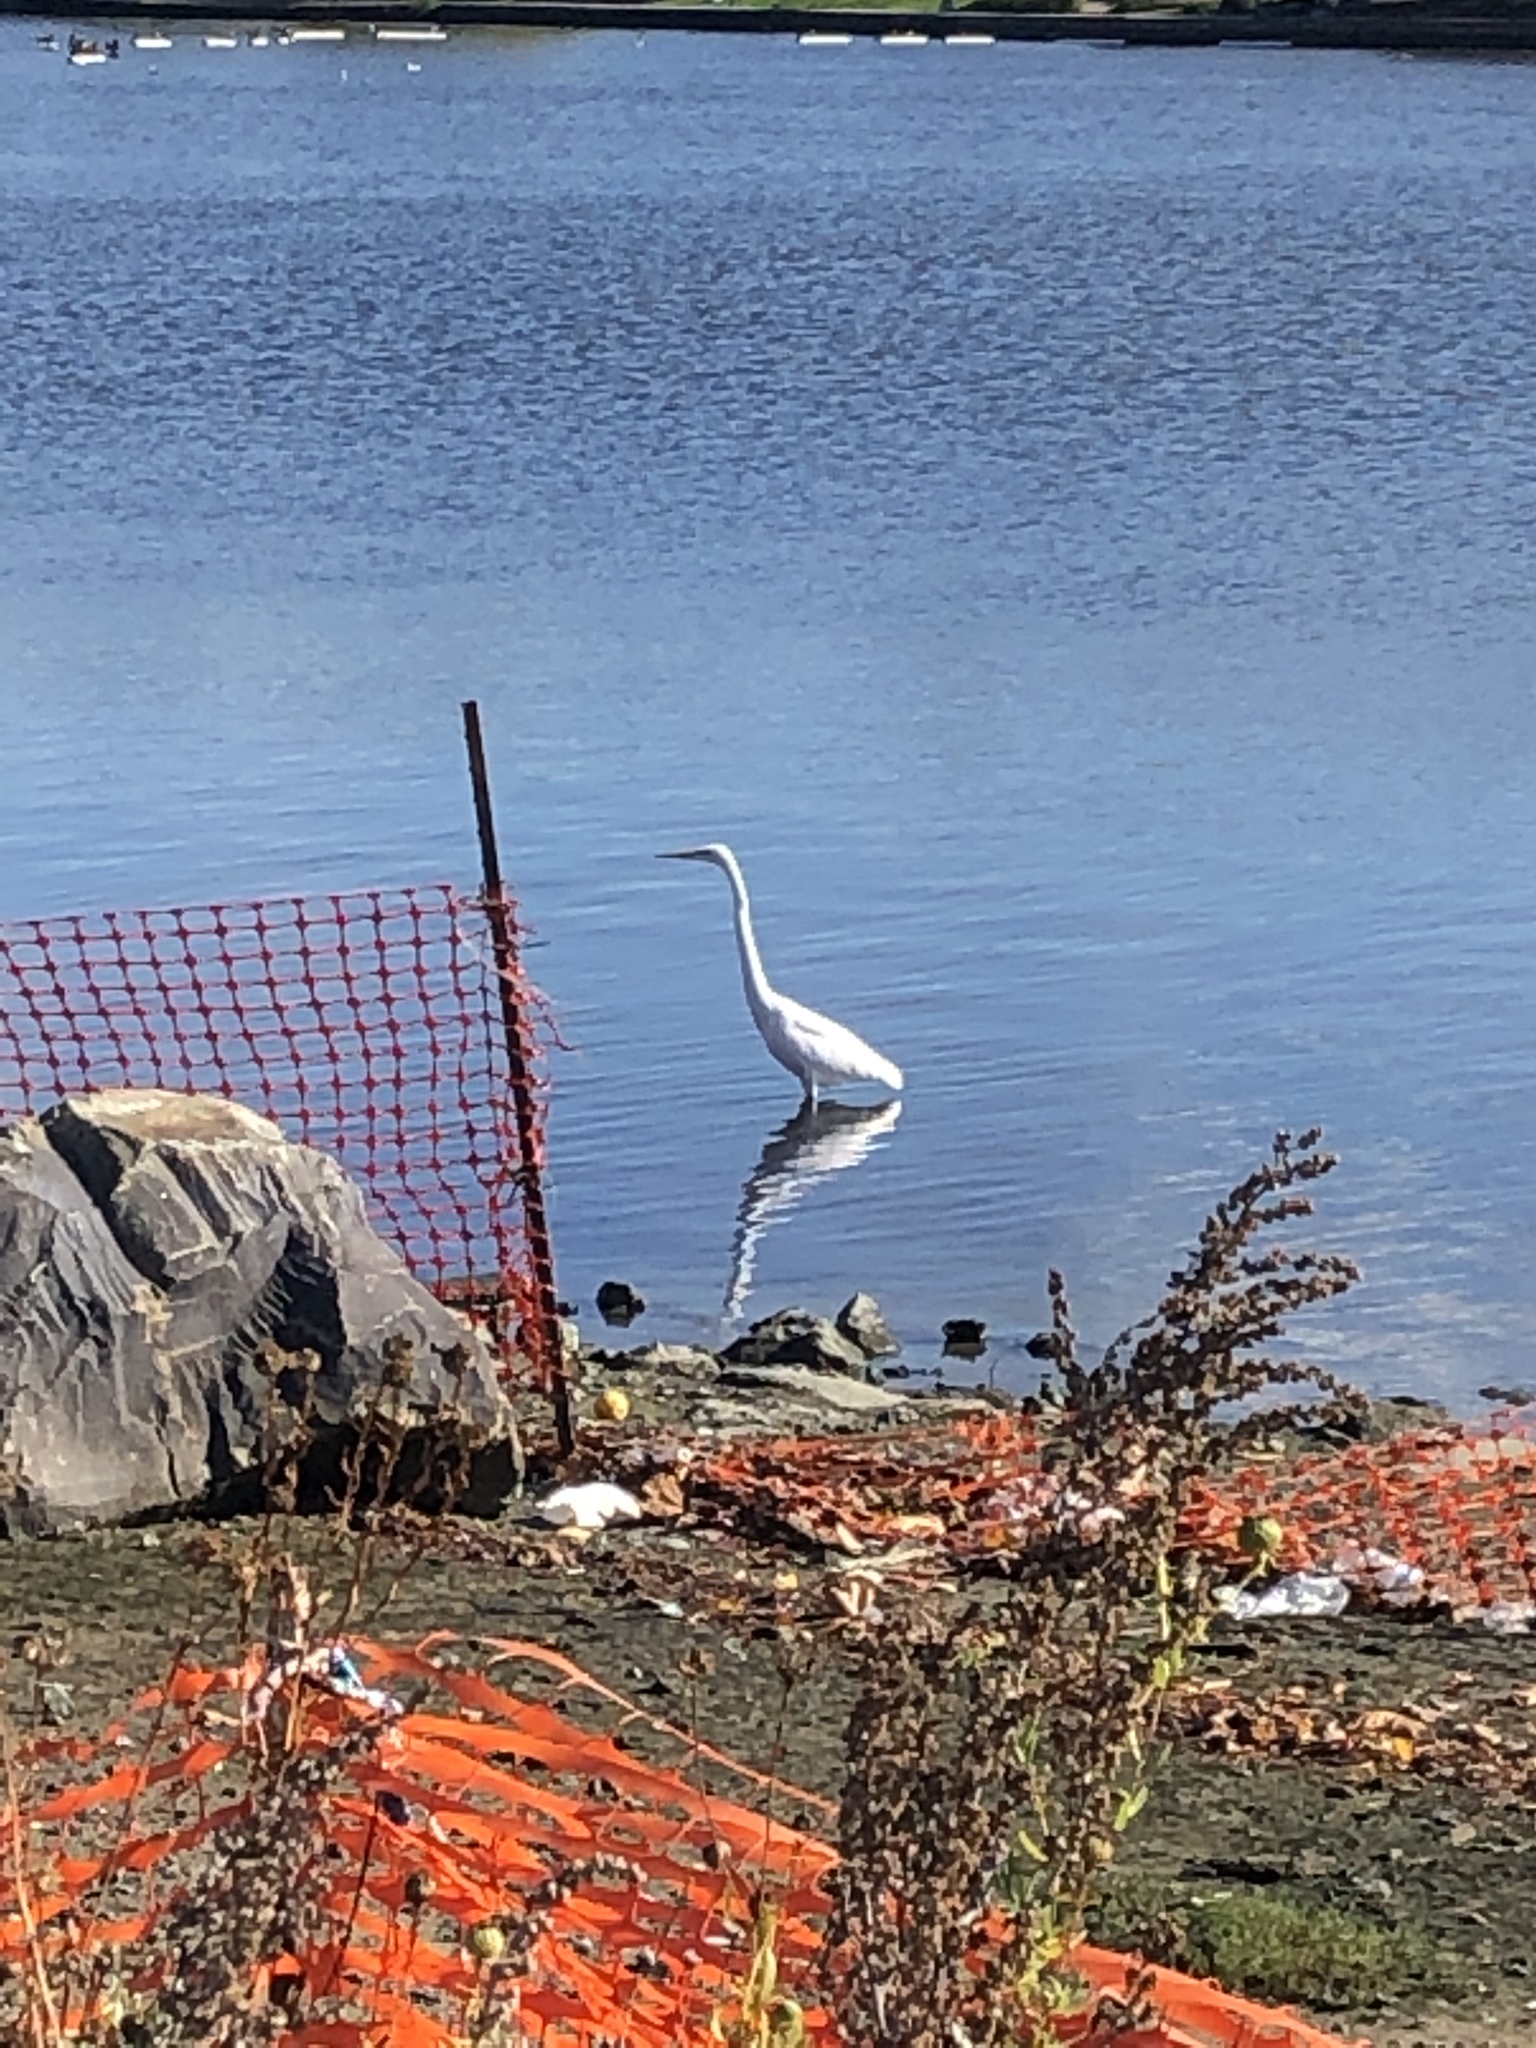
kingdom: Animalia
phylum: Chordata
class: Aves
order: Pelecaniformes
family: Ardeidae
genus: Ardea
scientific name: Ardea alba
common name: Great egret
